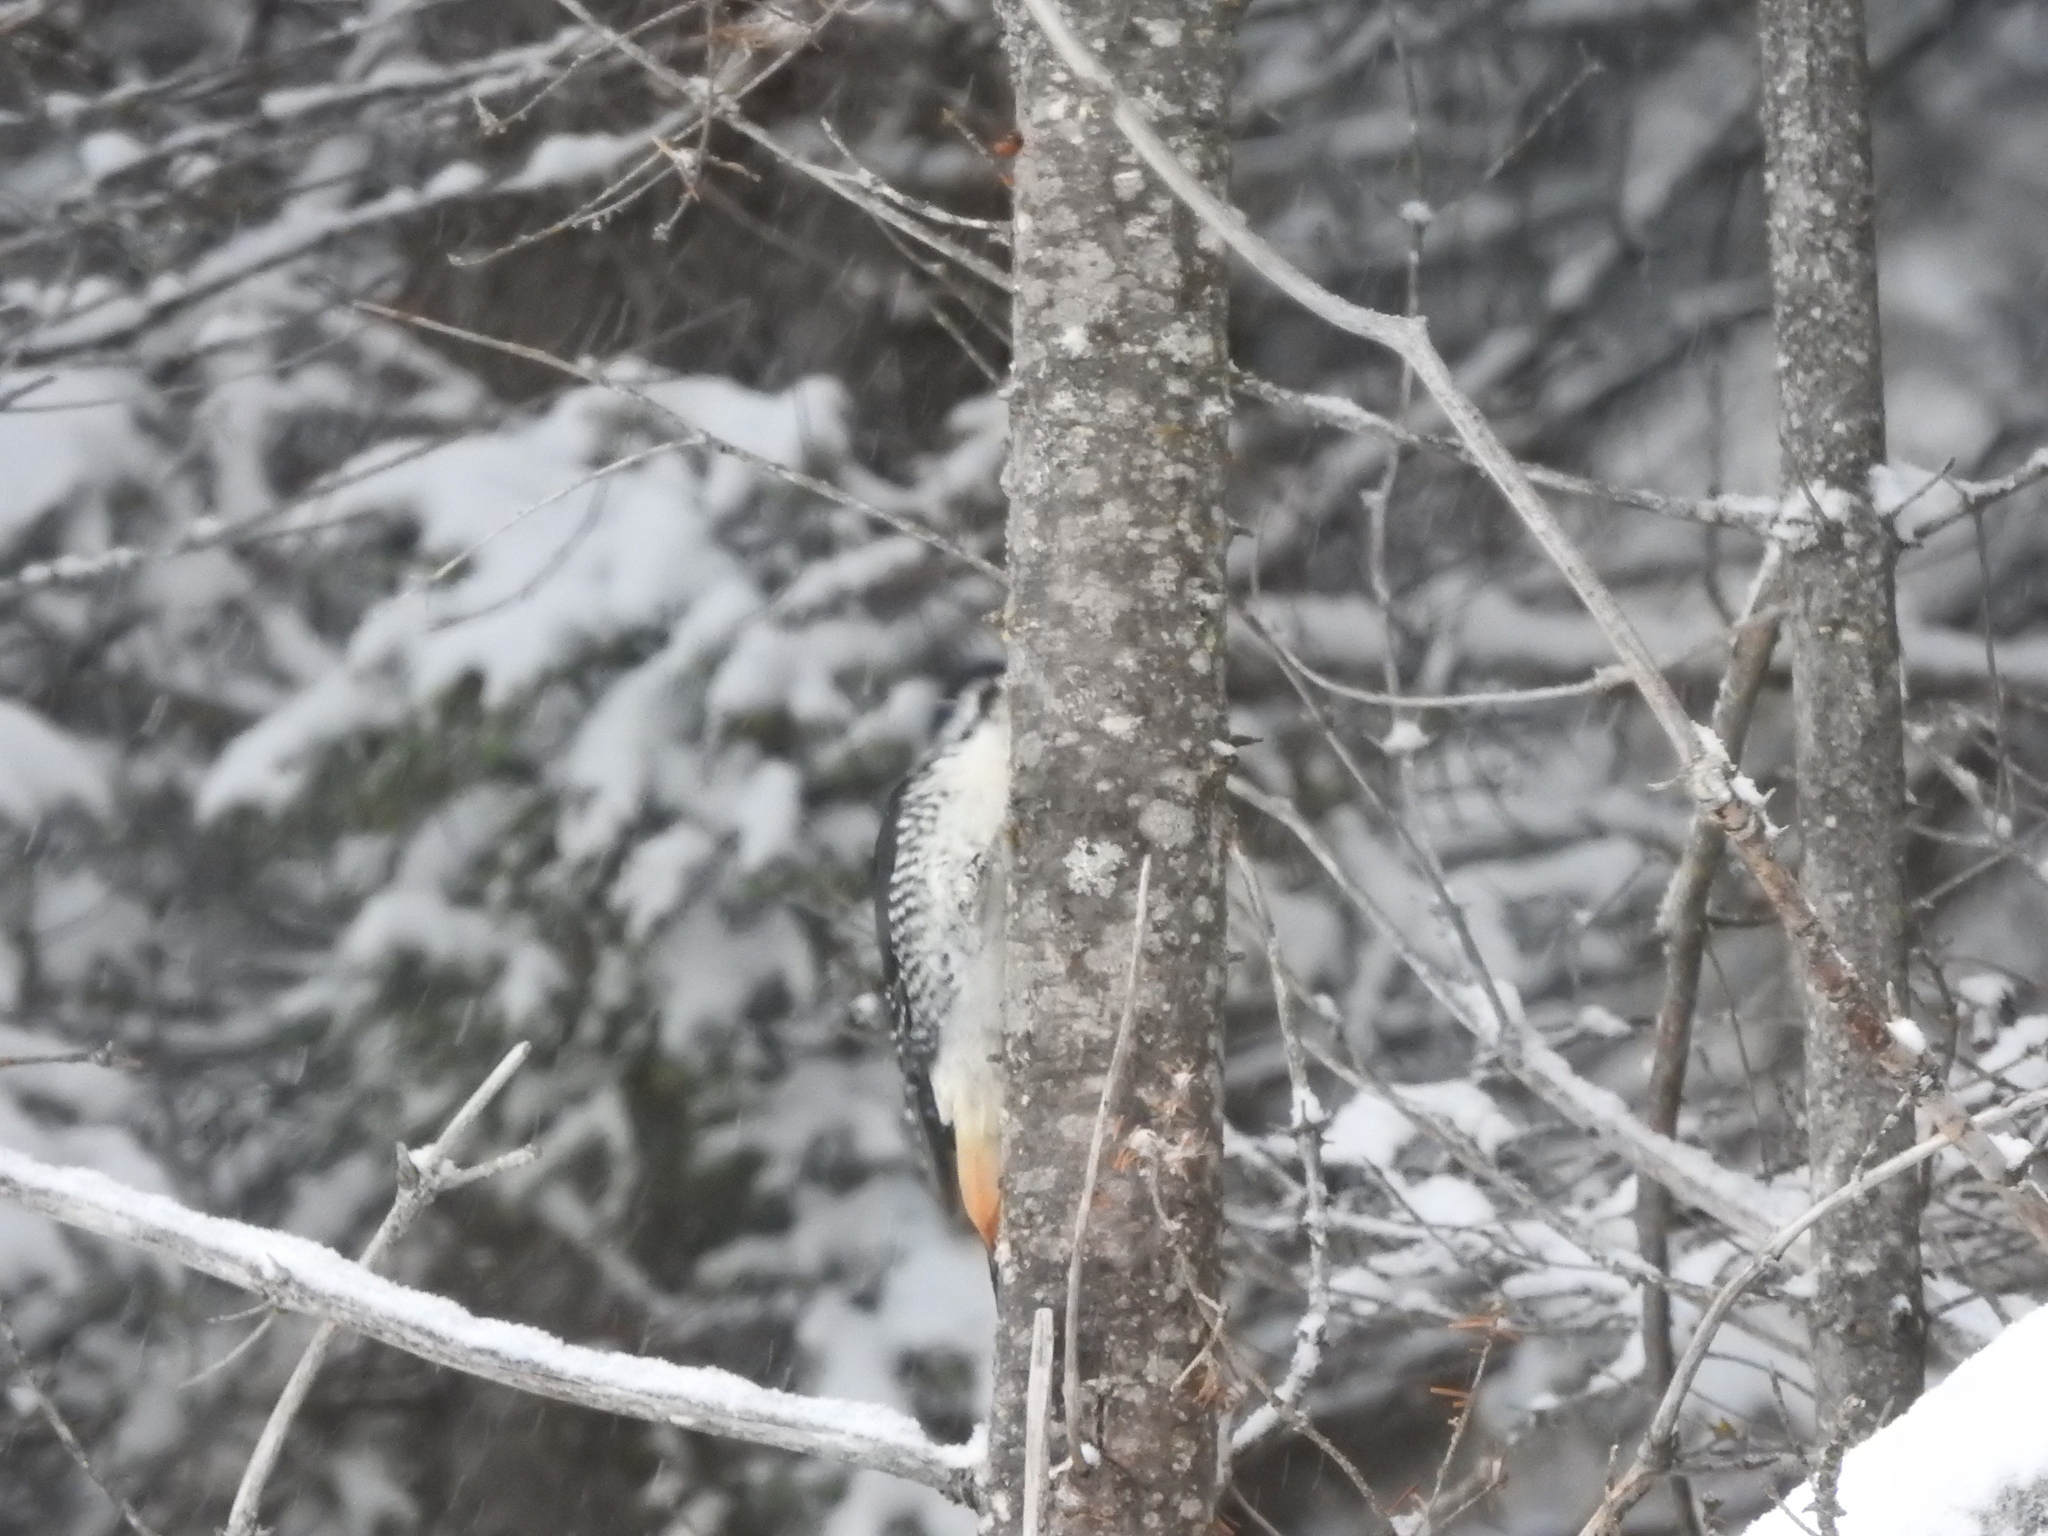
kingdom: Animalia
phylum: Chordata
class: Aves
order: Piciformes
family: Picidae
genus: Picoides
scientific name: Picoides arcticus
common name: Black-backed woodpecker
